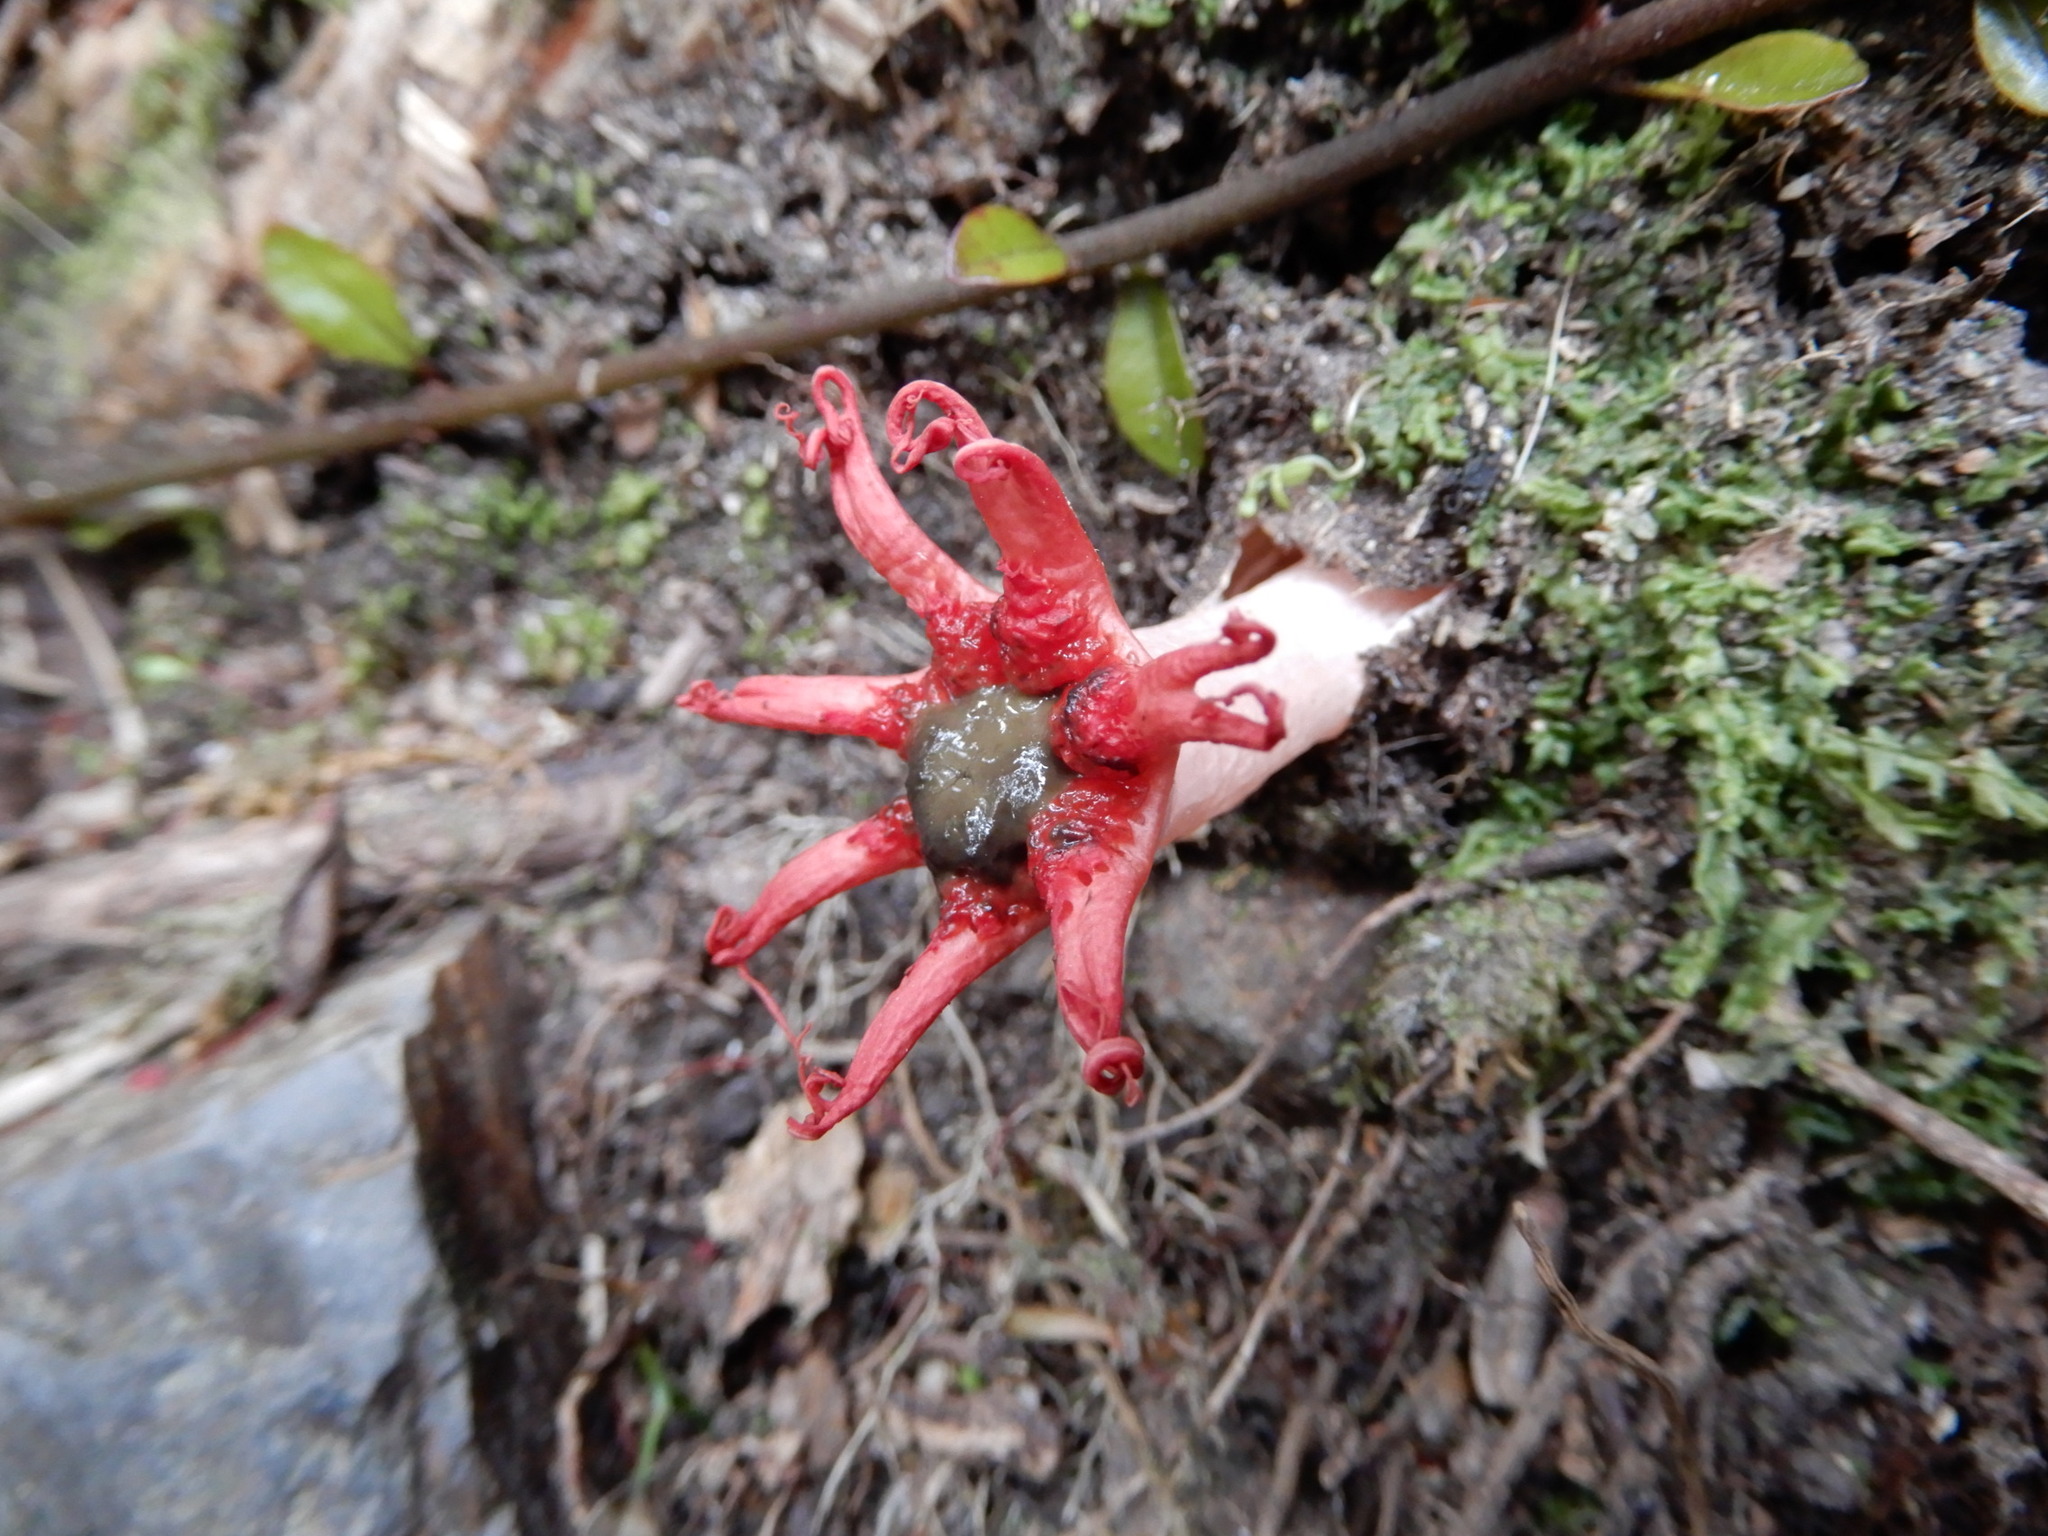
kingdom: Fungi
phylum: Basidiomycota
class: Agaricomycetes
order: Phallales
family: Phallaceae
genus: Aseroe
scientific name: Aseroe rubra
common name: Starfish fungus
